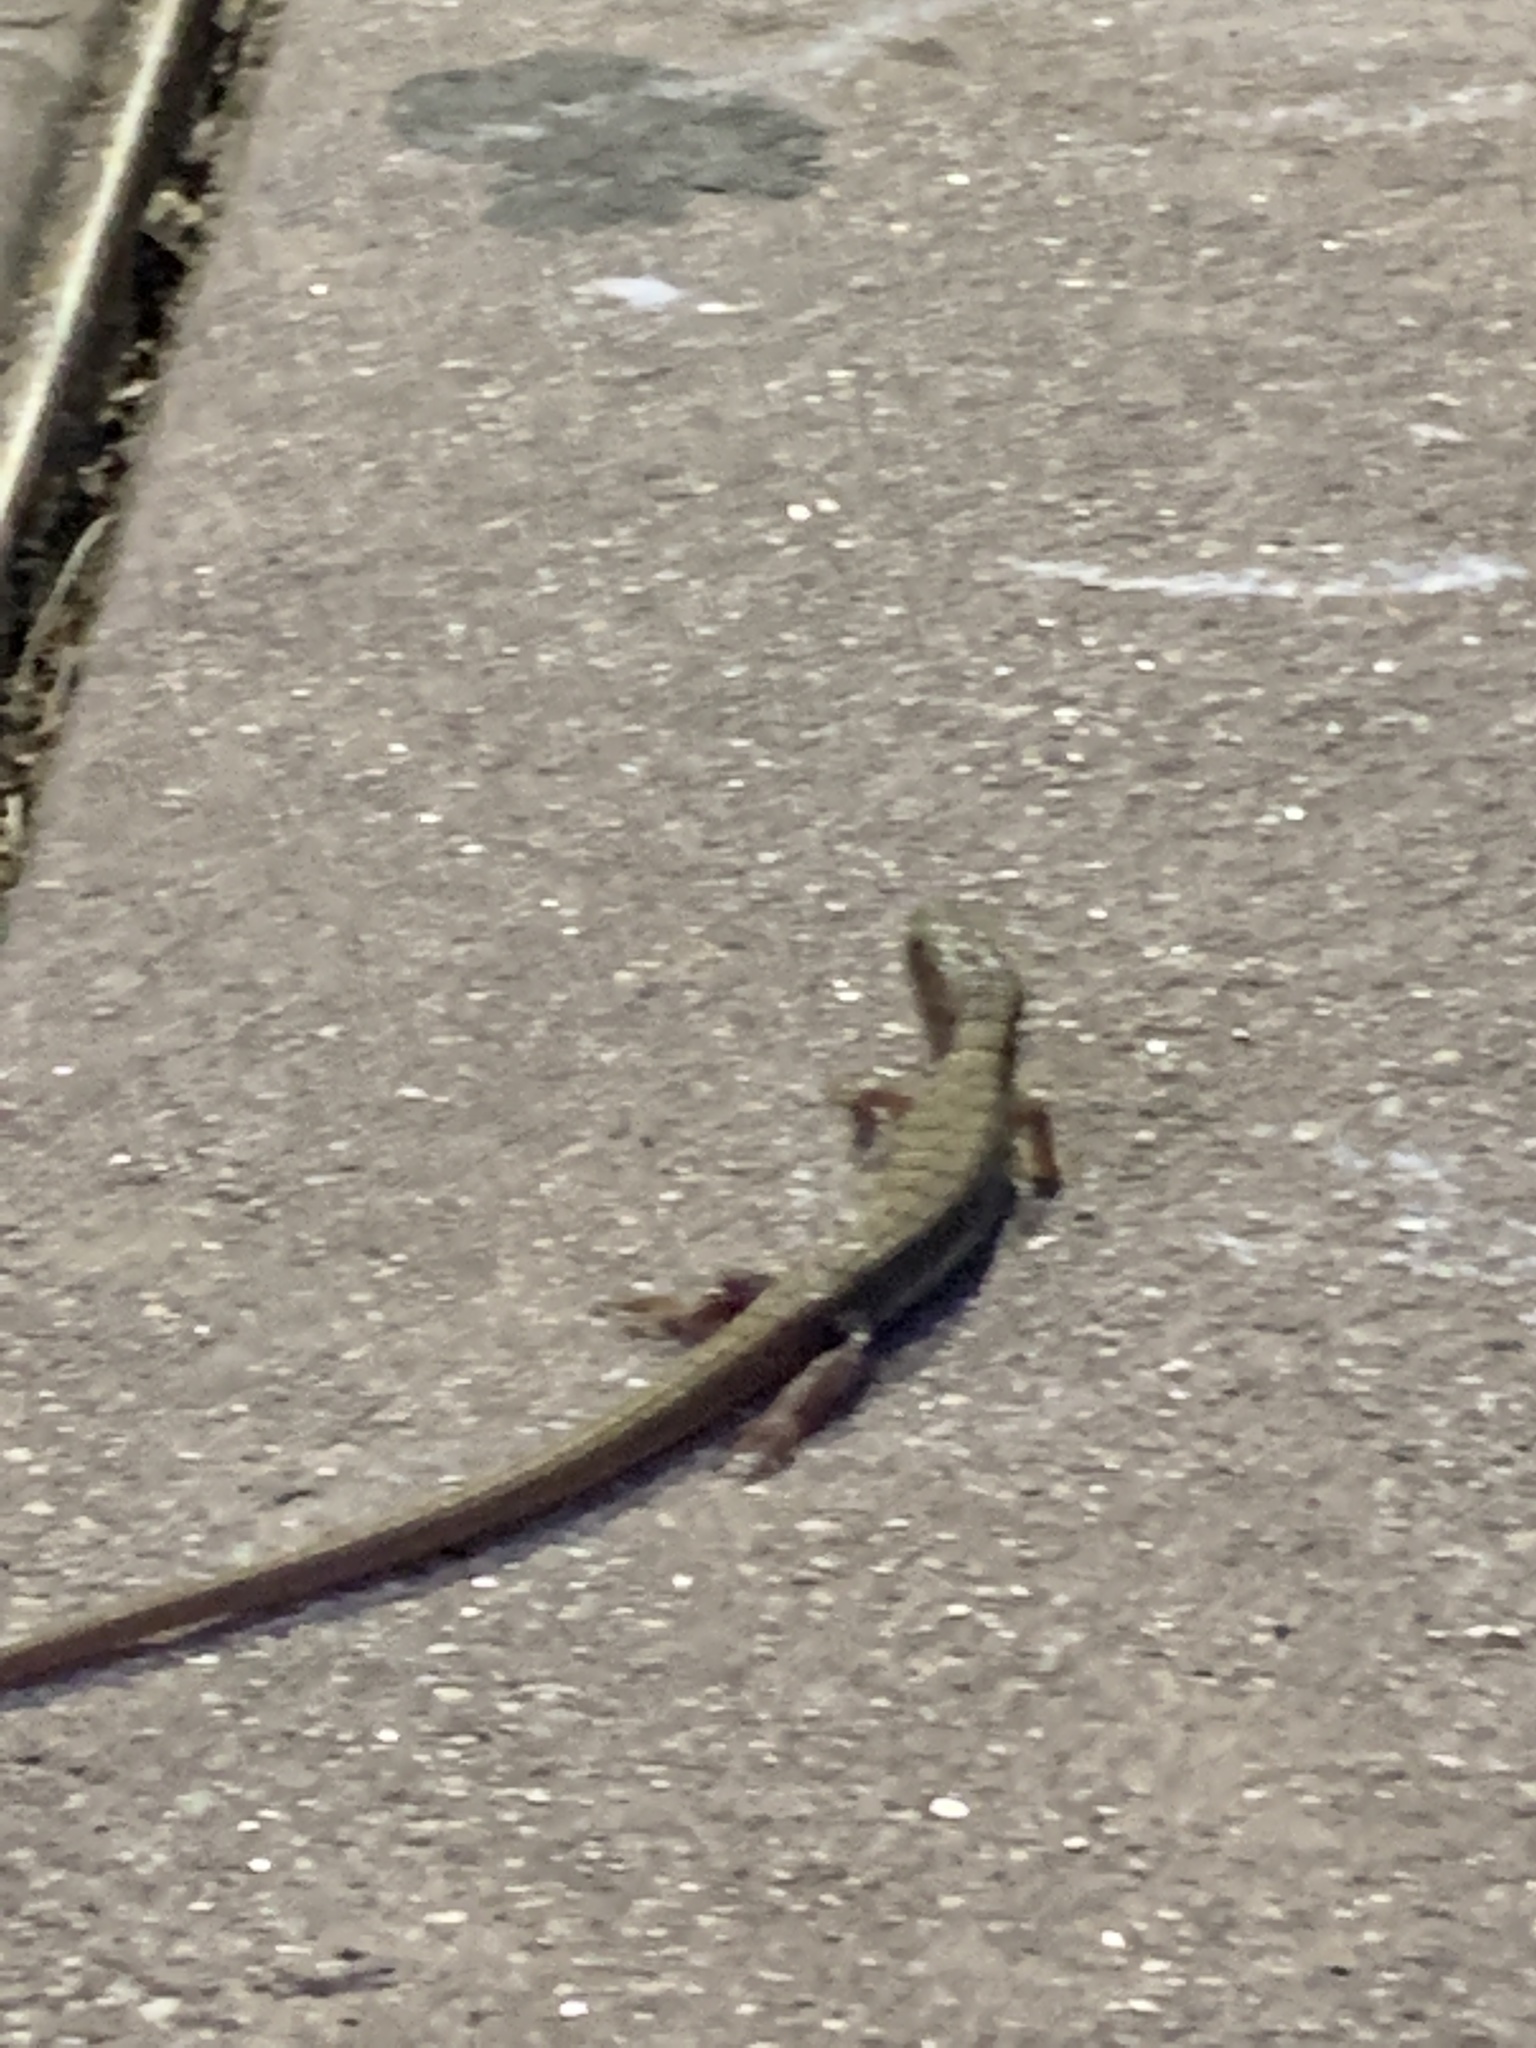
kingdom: Animalia
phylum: Chordata
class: Squamata
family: Anguidae
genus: Elgaria
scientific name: Elgaria multicarinata
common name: Southern alligator lizard
